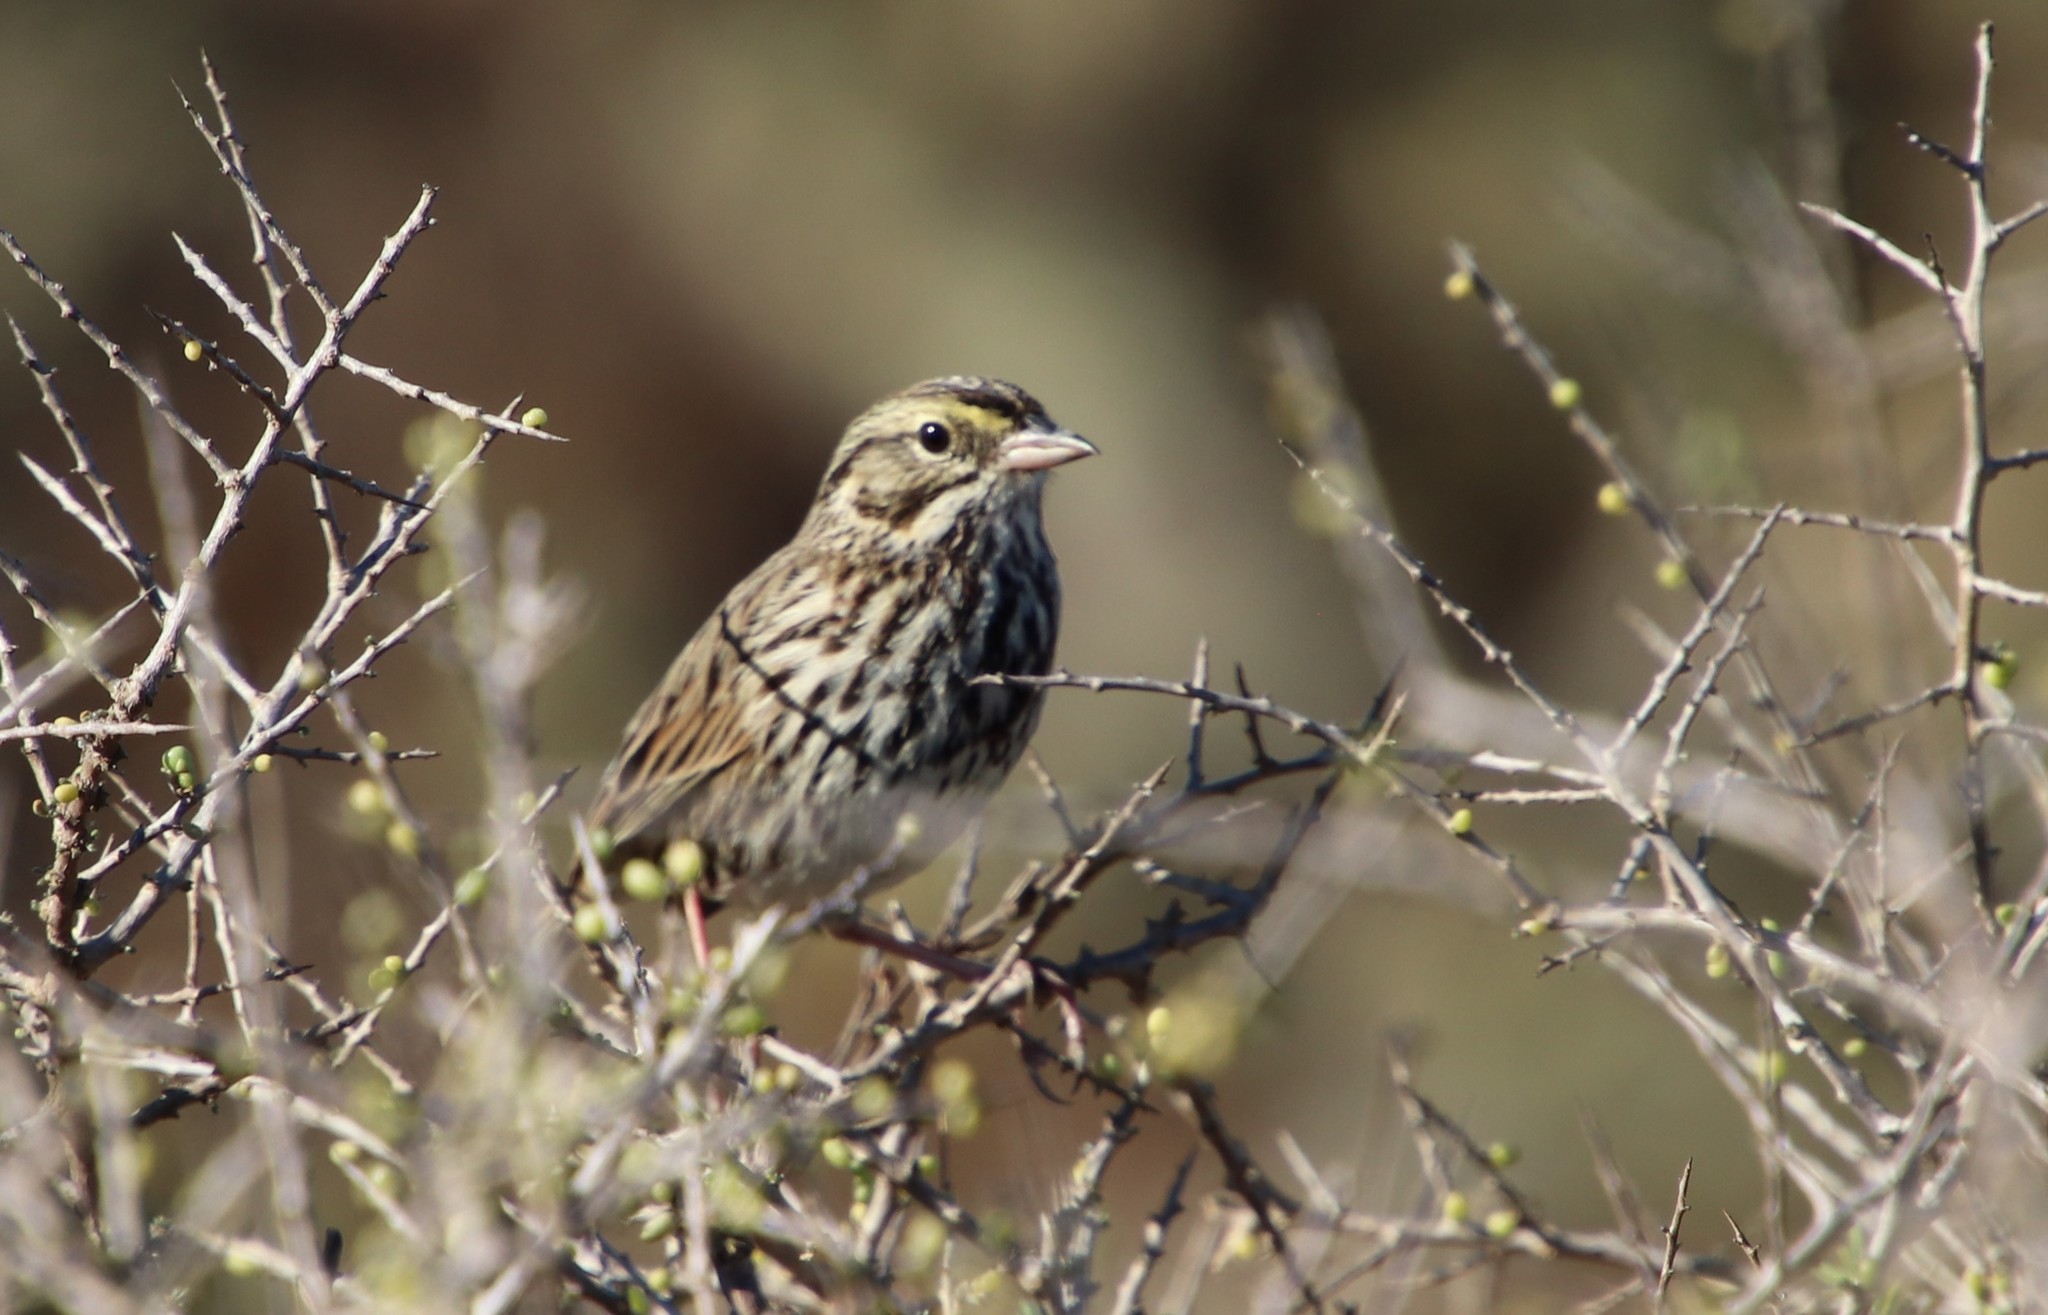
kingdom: Animalia
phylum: Chordata
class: Aves
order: Passeriformes
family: Passerellidae
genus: Passerculus
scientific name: Passerculus sandwichensis
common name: Savannah sparrow
